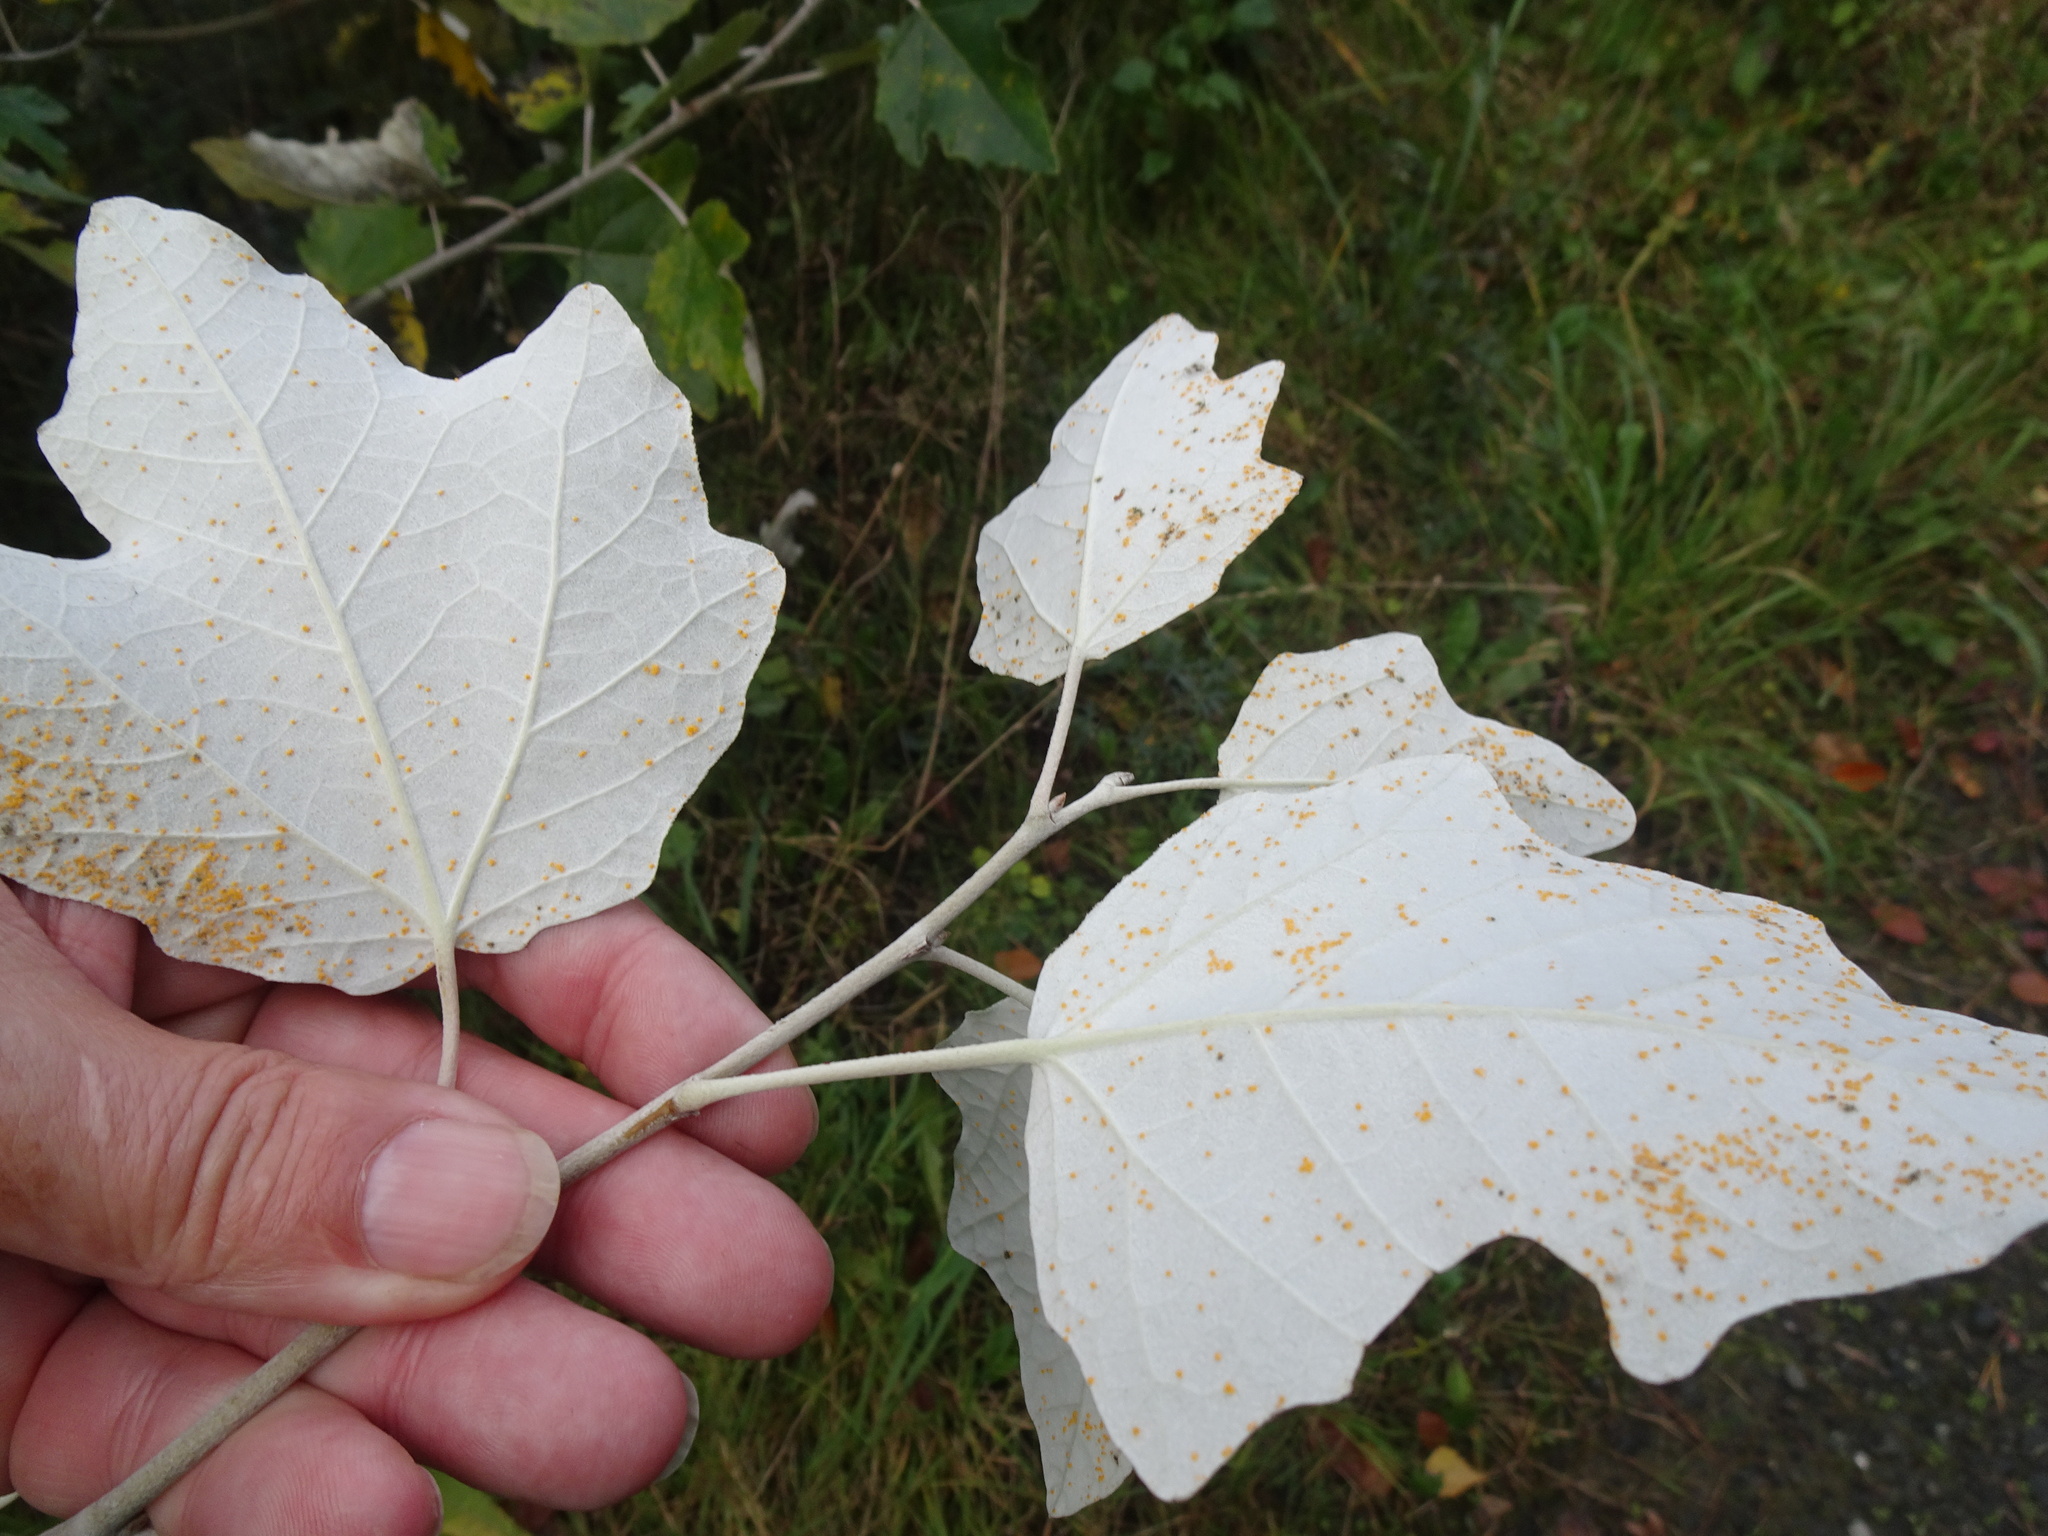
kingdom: Plantae
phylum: Tracheophyta
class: Magnoliopsida
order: Malpighiales
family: Salicaceae
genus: Populus
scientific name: Populus alba
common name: White poplar
